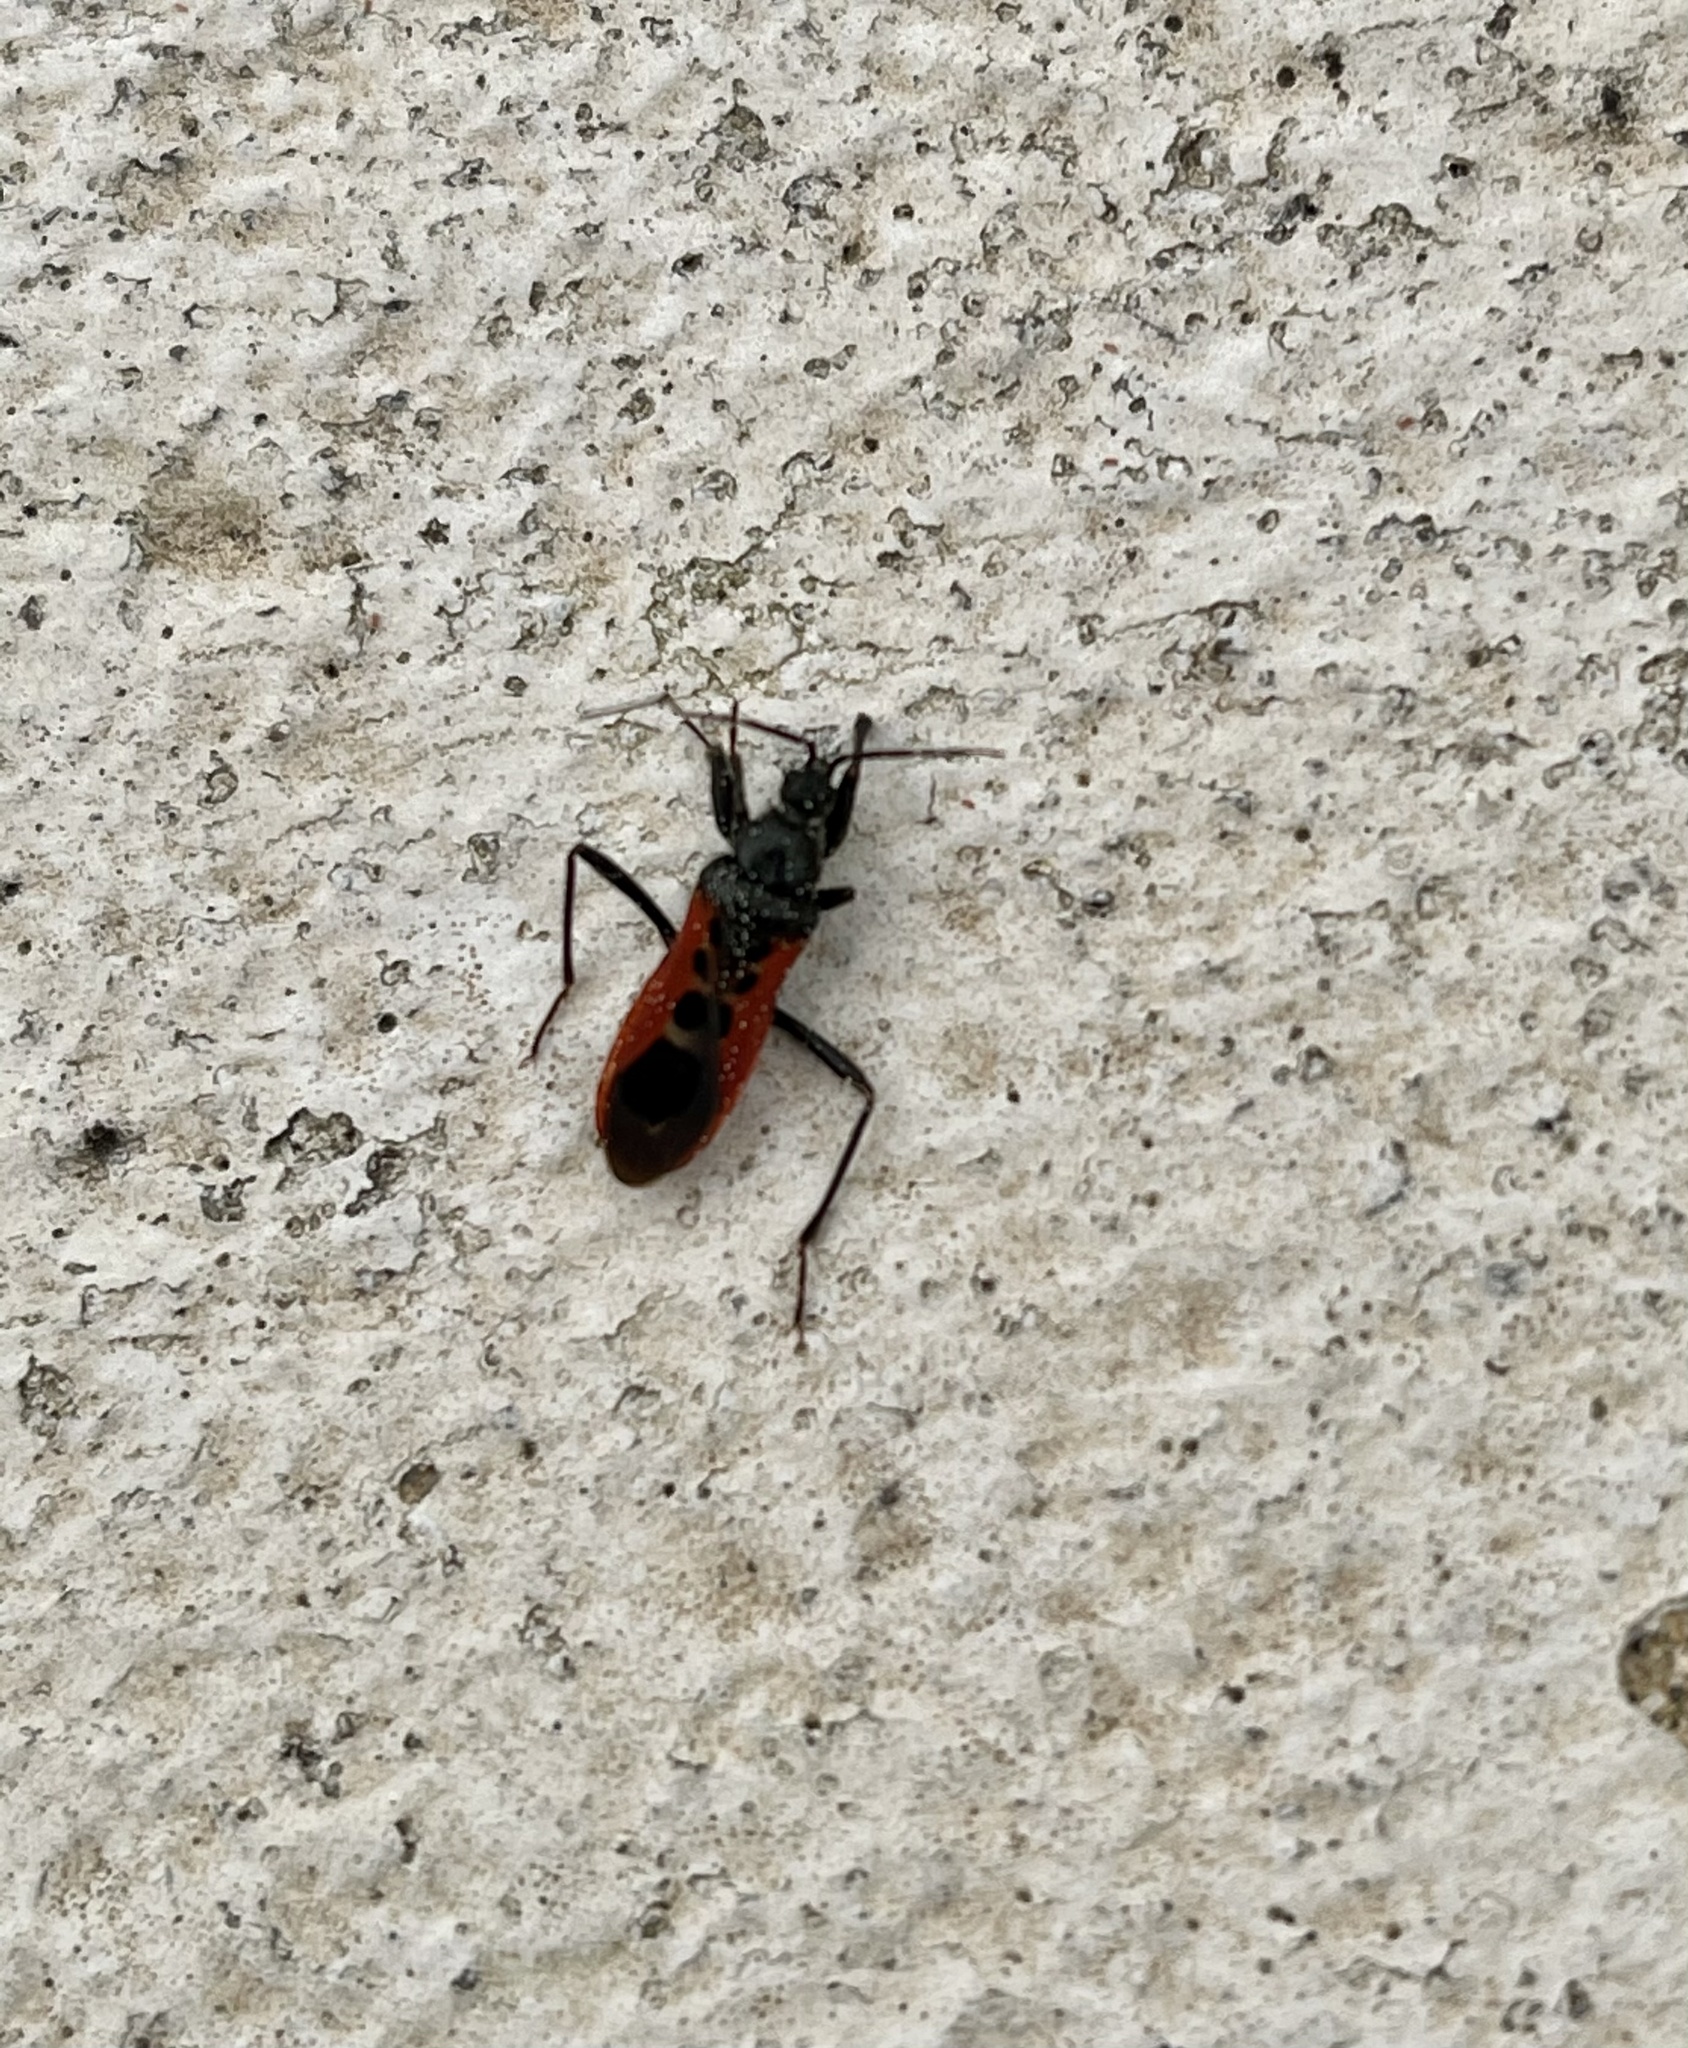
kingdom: Animalia
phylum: Arthropoda
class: Insecta
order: Hemiptera
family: Reduviidae
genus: Peirates
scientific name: Peirates hybridus
